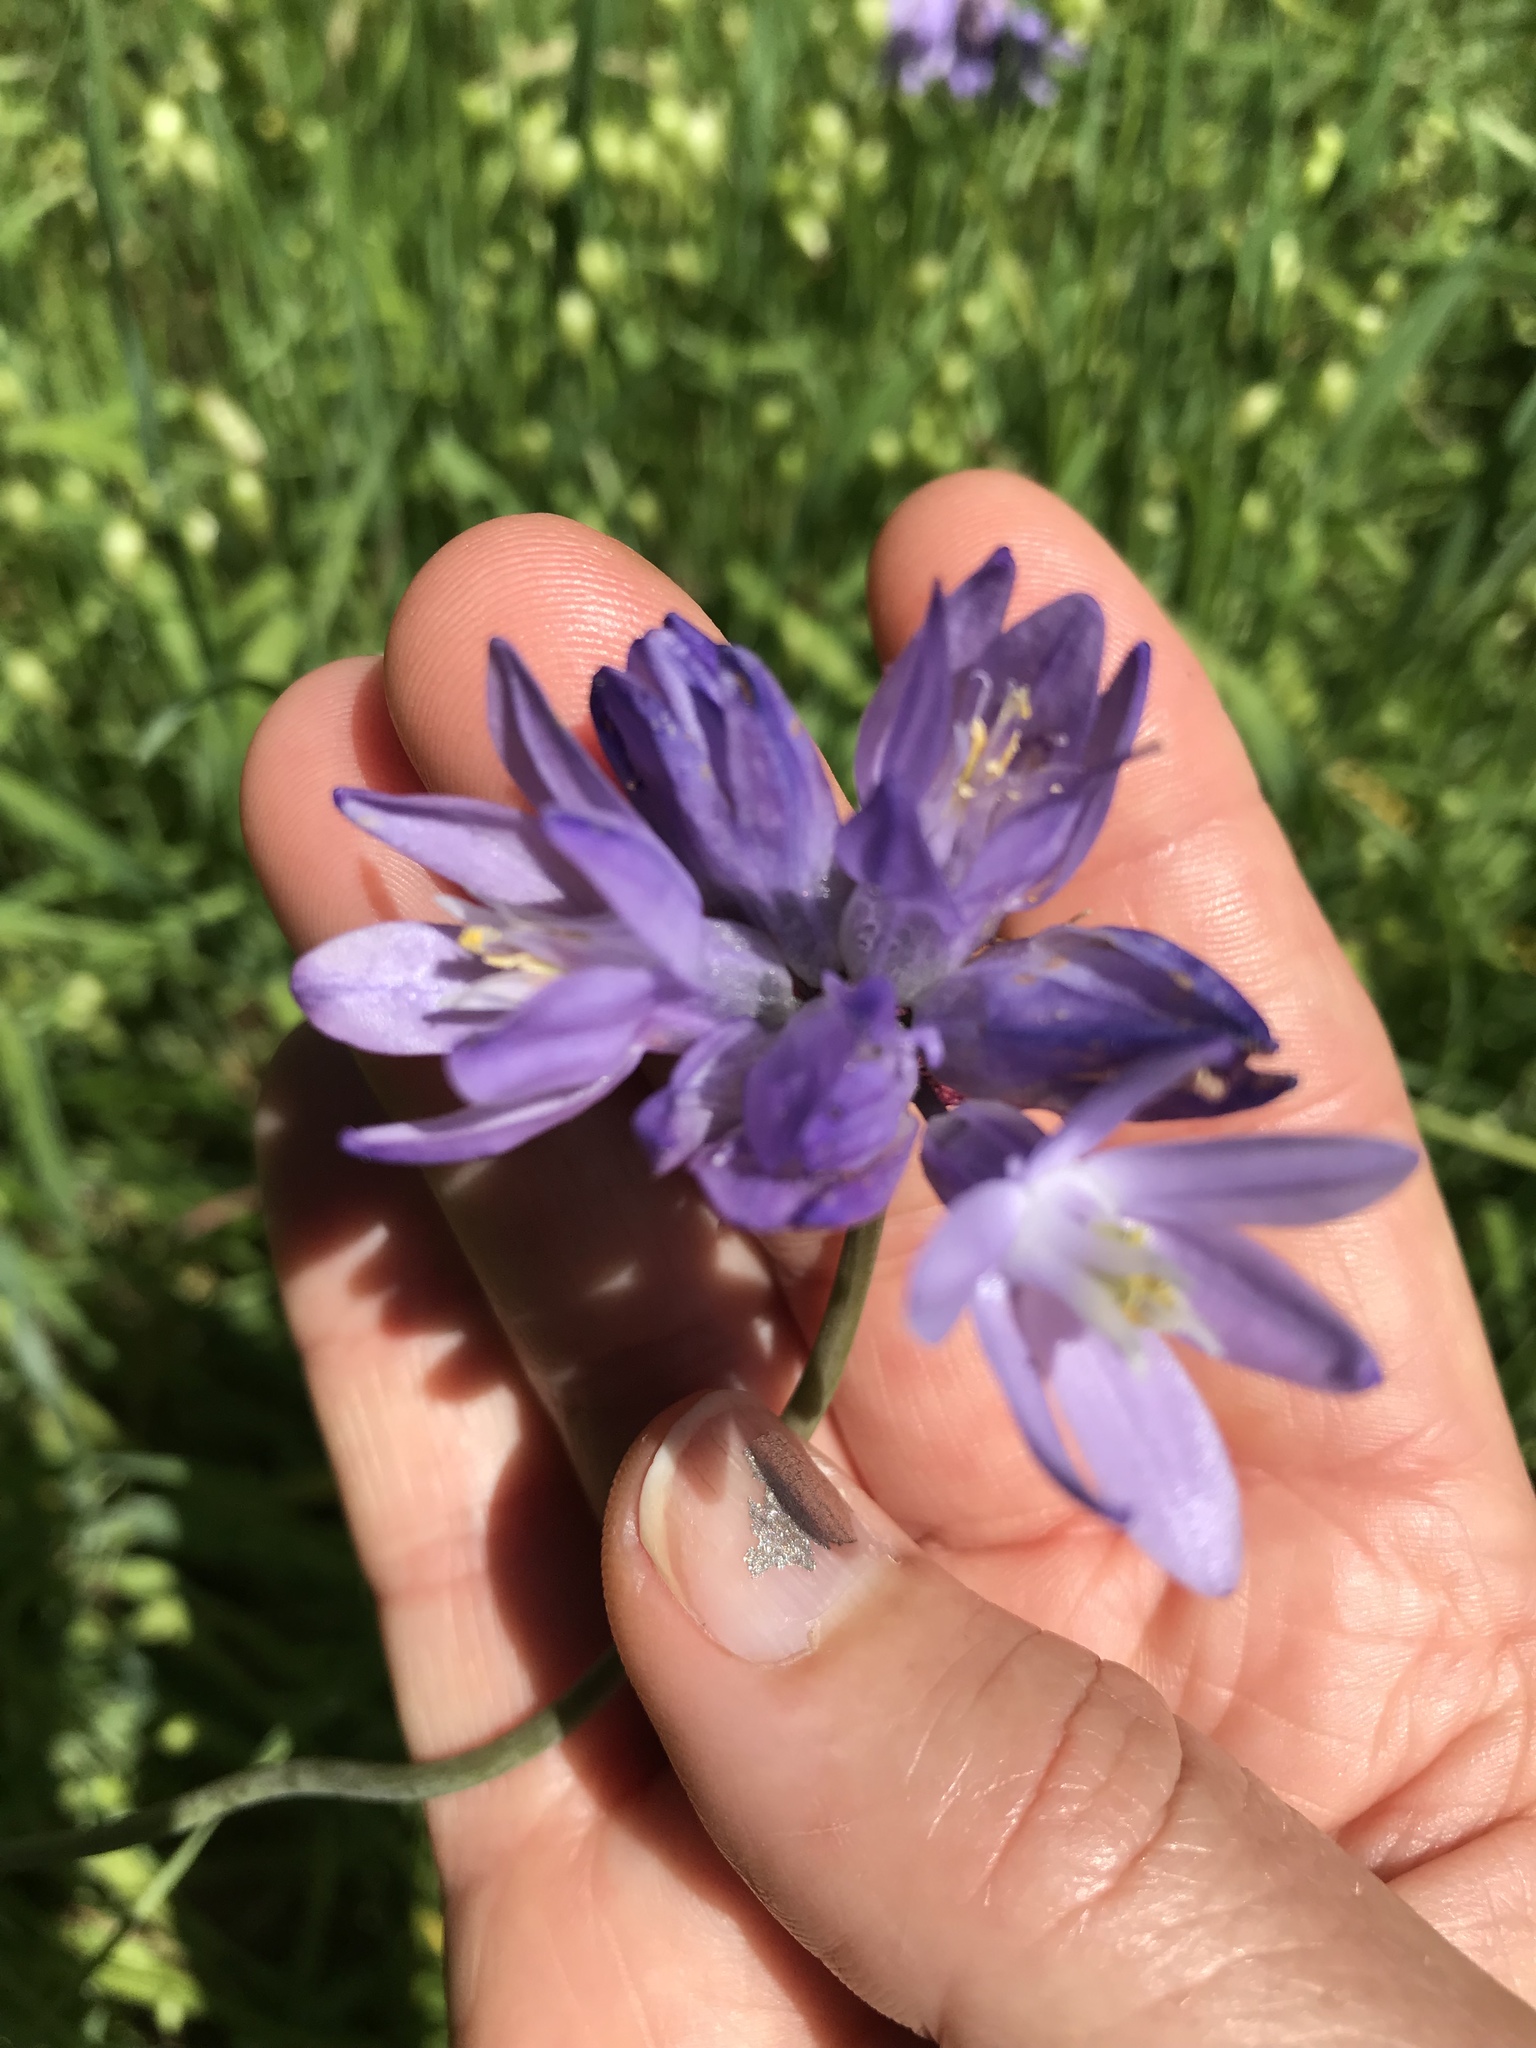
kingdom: Plantae
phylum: Tracheophyta
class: Liliopsida
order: Asparagales
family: Asparagaceae
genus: Dipterostemon
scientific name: Dipterostemon capitatus
